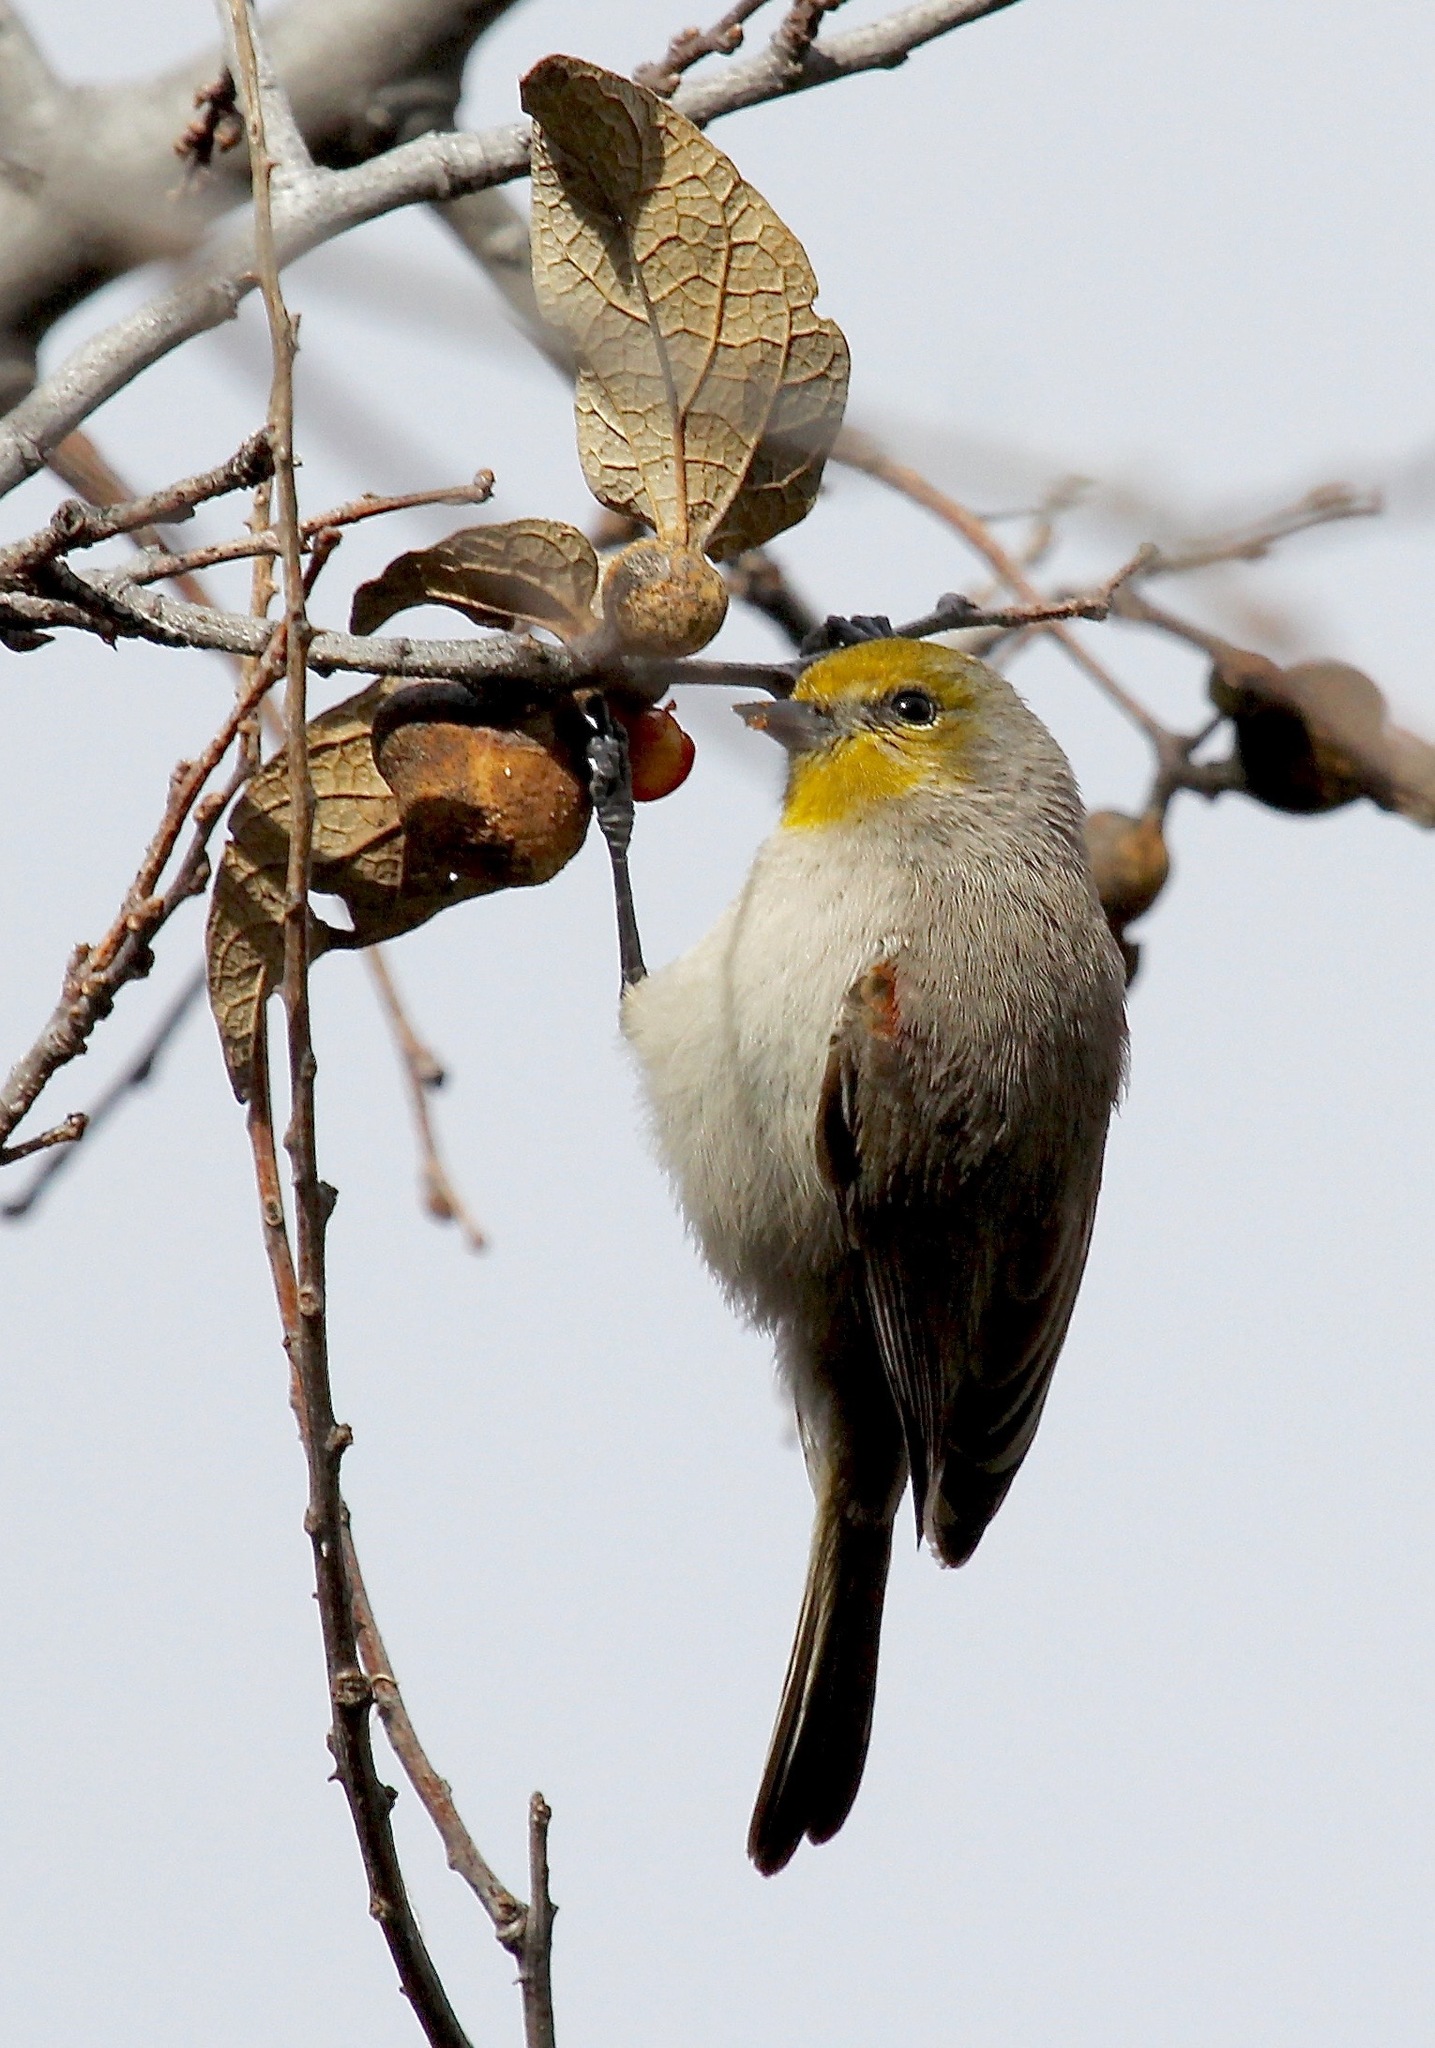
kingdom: Animalia
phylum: Chordata
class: Aves
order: Passeriformes
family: Remizidae
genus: Auriparus
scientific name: Auriparus flaviceps
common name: Verdin
